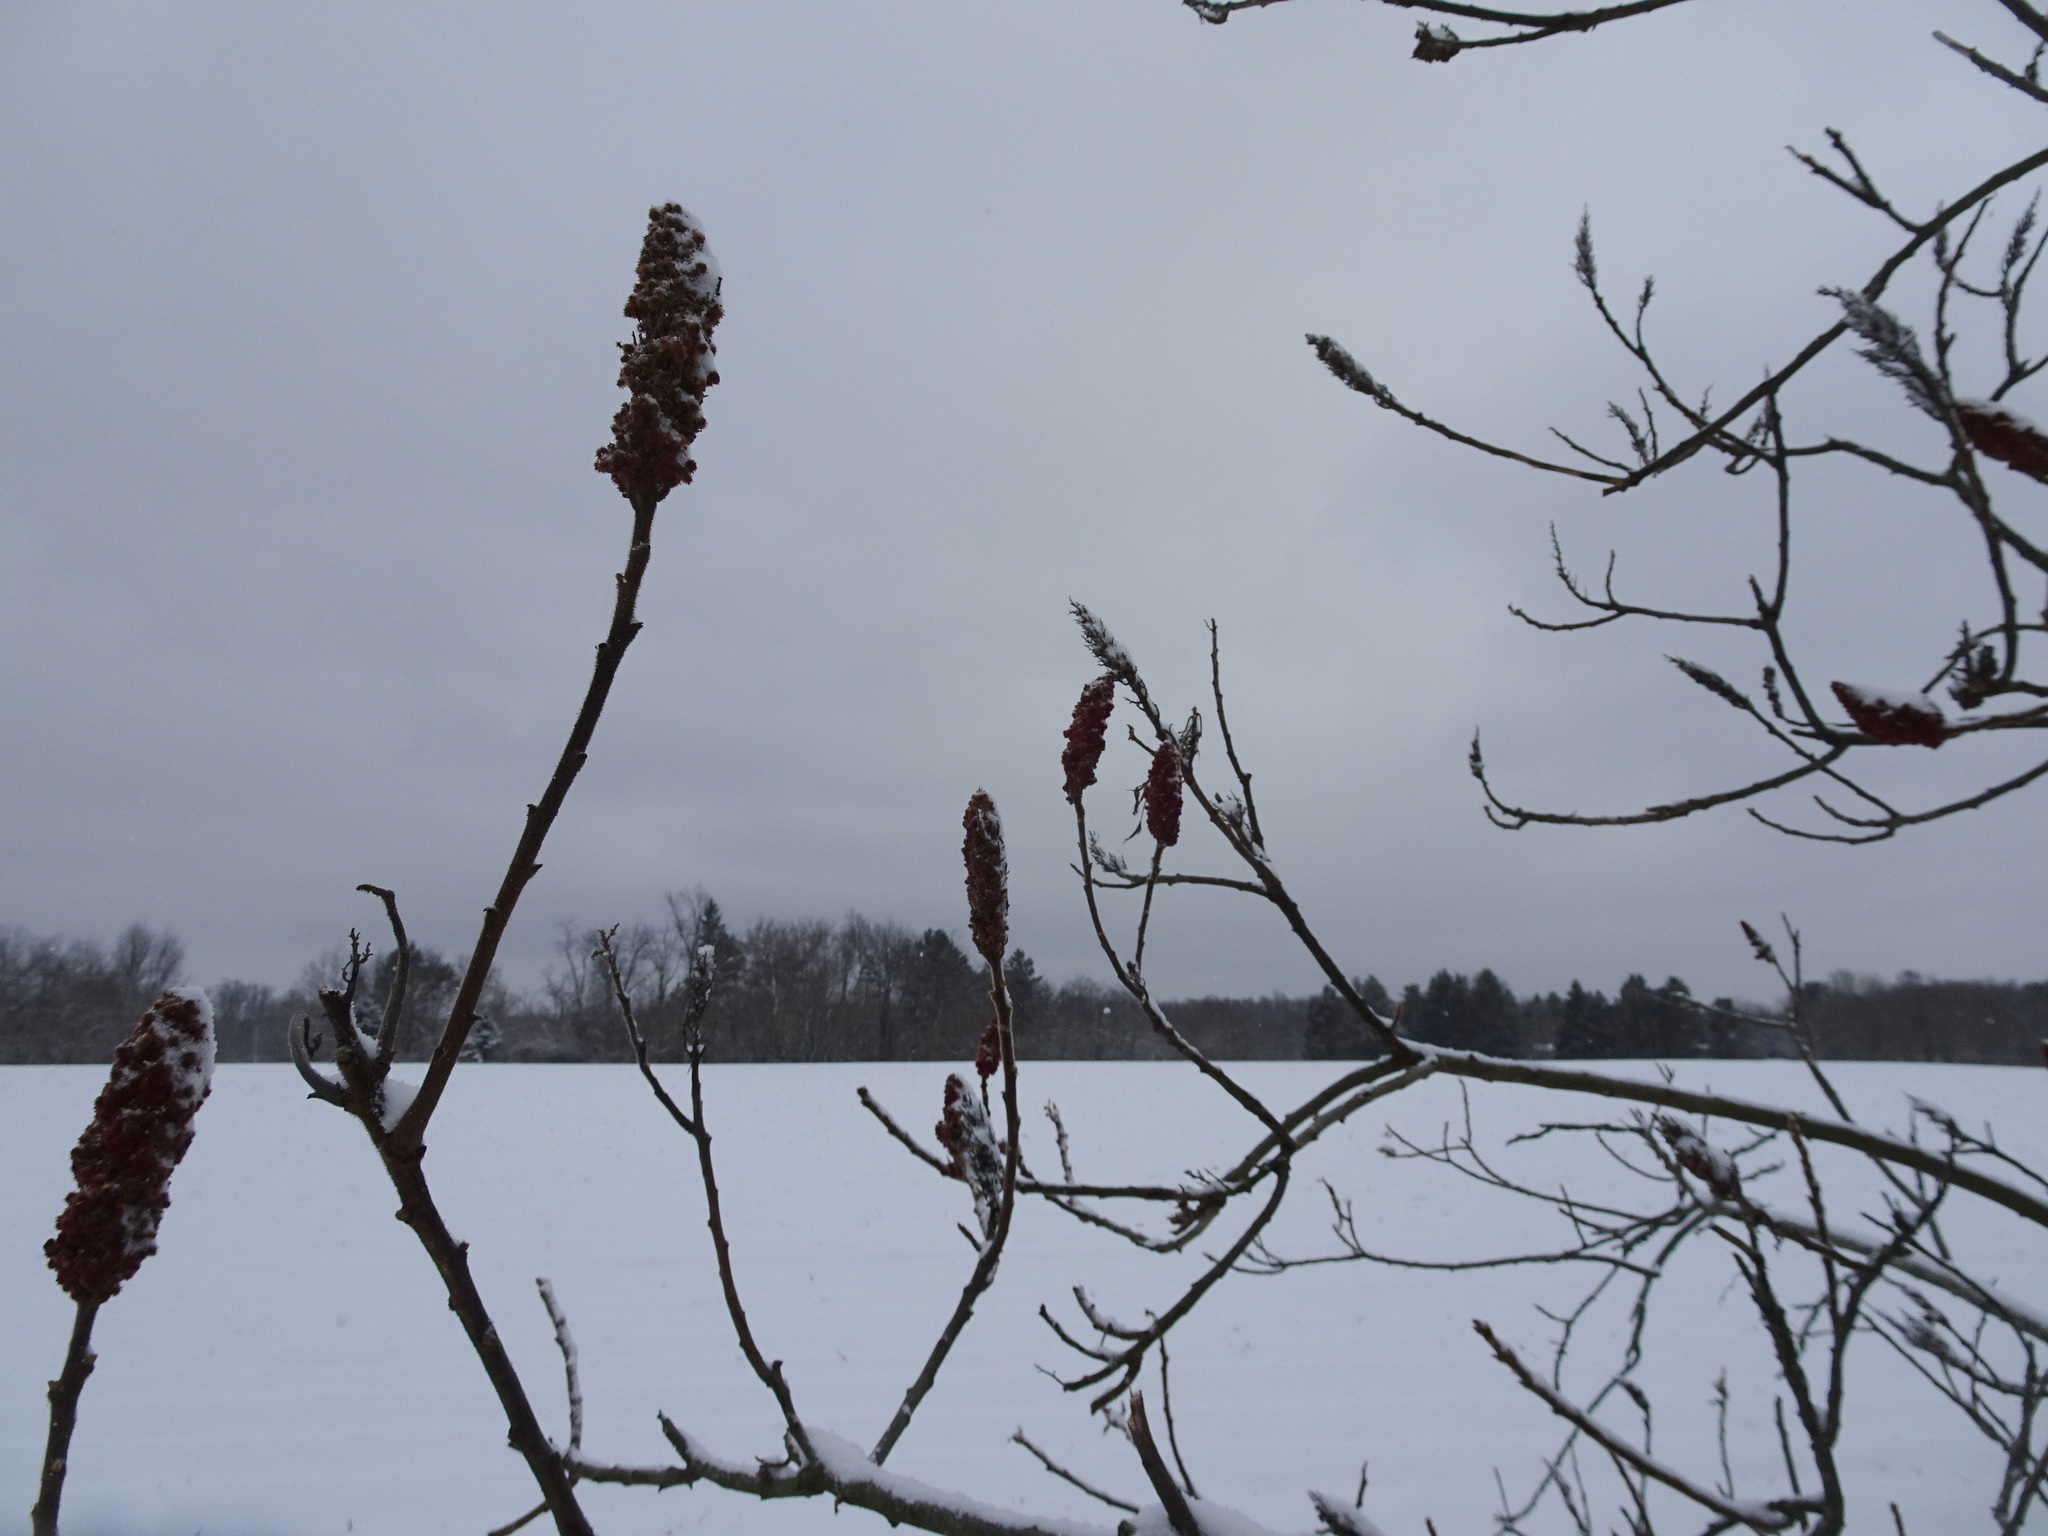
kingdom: Plantae
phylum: Tracheophyta
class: Magnoliopsida
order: Sapindales
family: Anacardiaceae
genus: Rhus
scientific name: Rhus typhina
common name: Staghorn sumac
